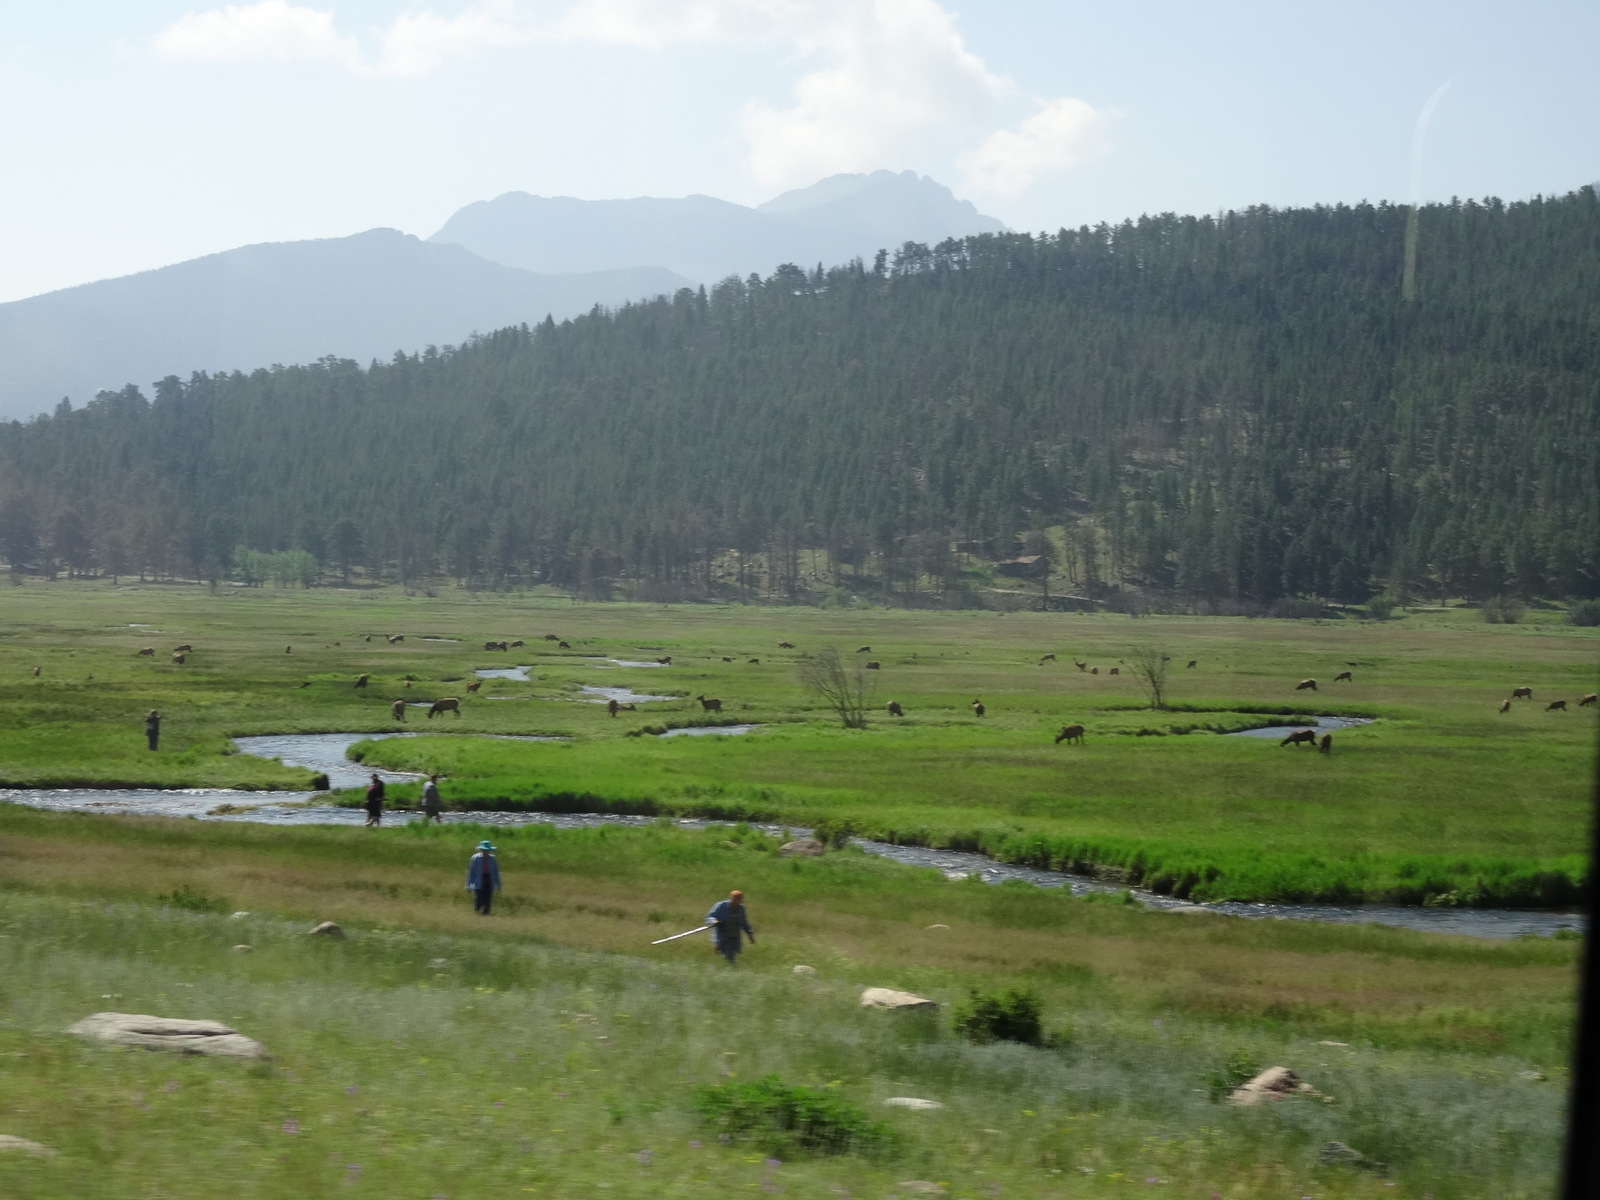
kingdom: Animalia
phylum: Chordata
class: Mammalia
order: Artiodactyla
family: Cervidae
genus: Cervus
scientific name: Cervus elaphus
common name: Red deer
